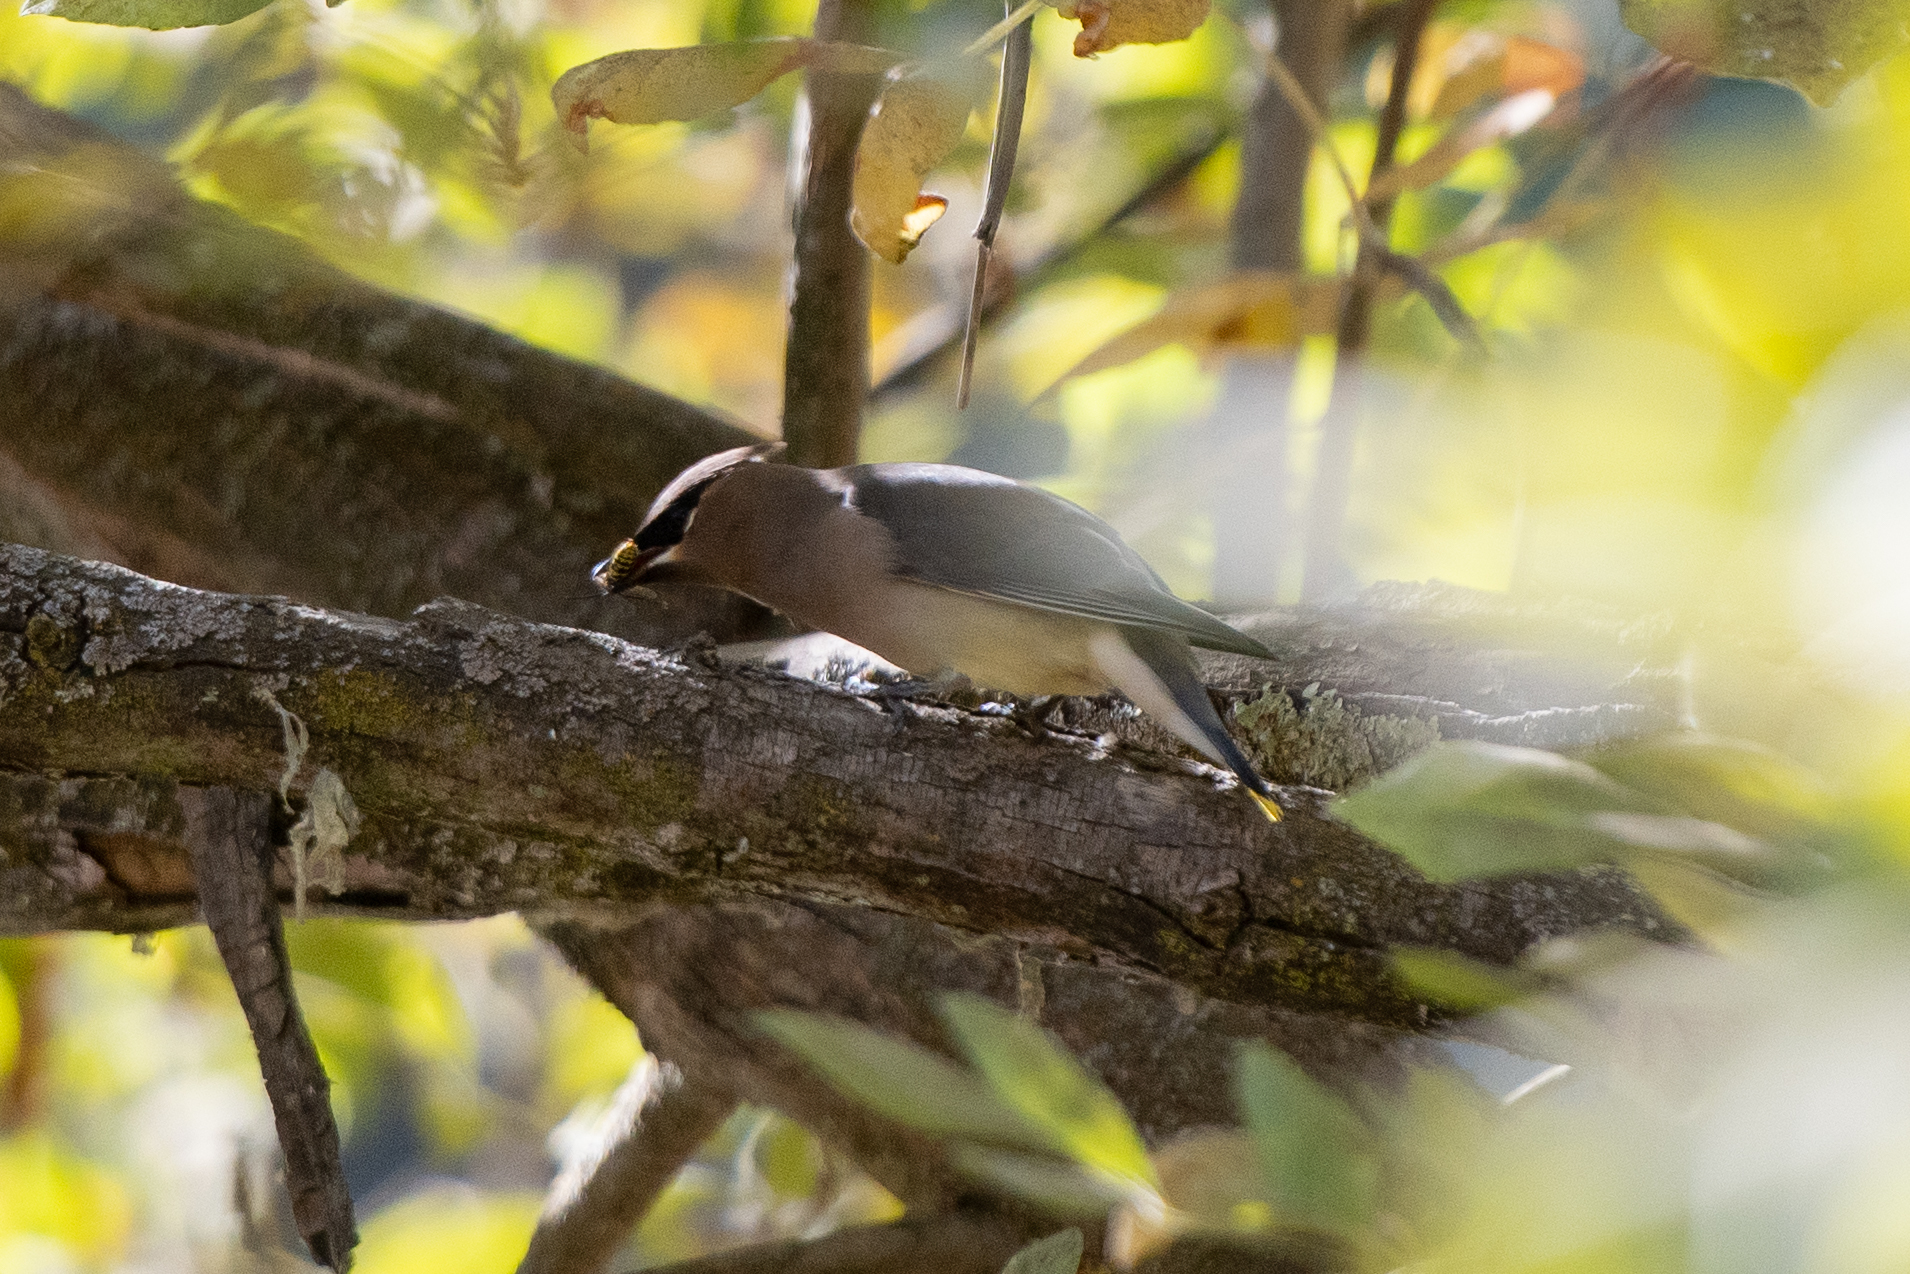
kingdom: Animalia
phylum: Chordata
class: Aves
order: Passeriformes
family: Bombycillidae
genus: Bombycilla
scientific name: Bombycilla cedrorum
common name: Cedar waxwing
